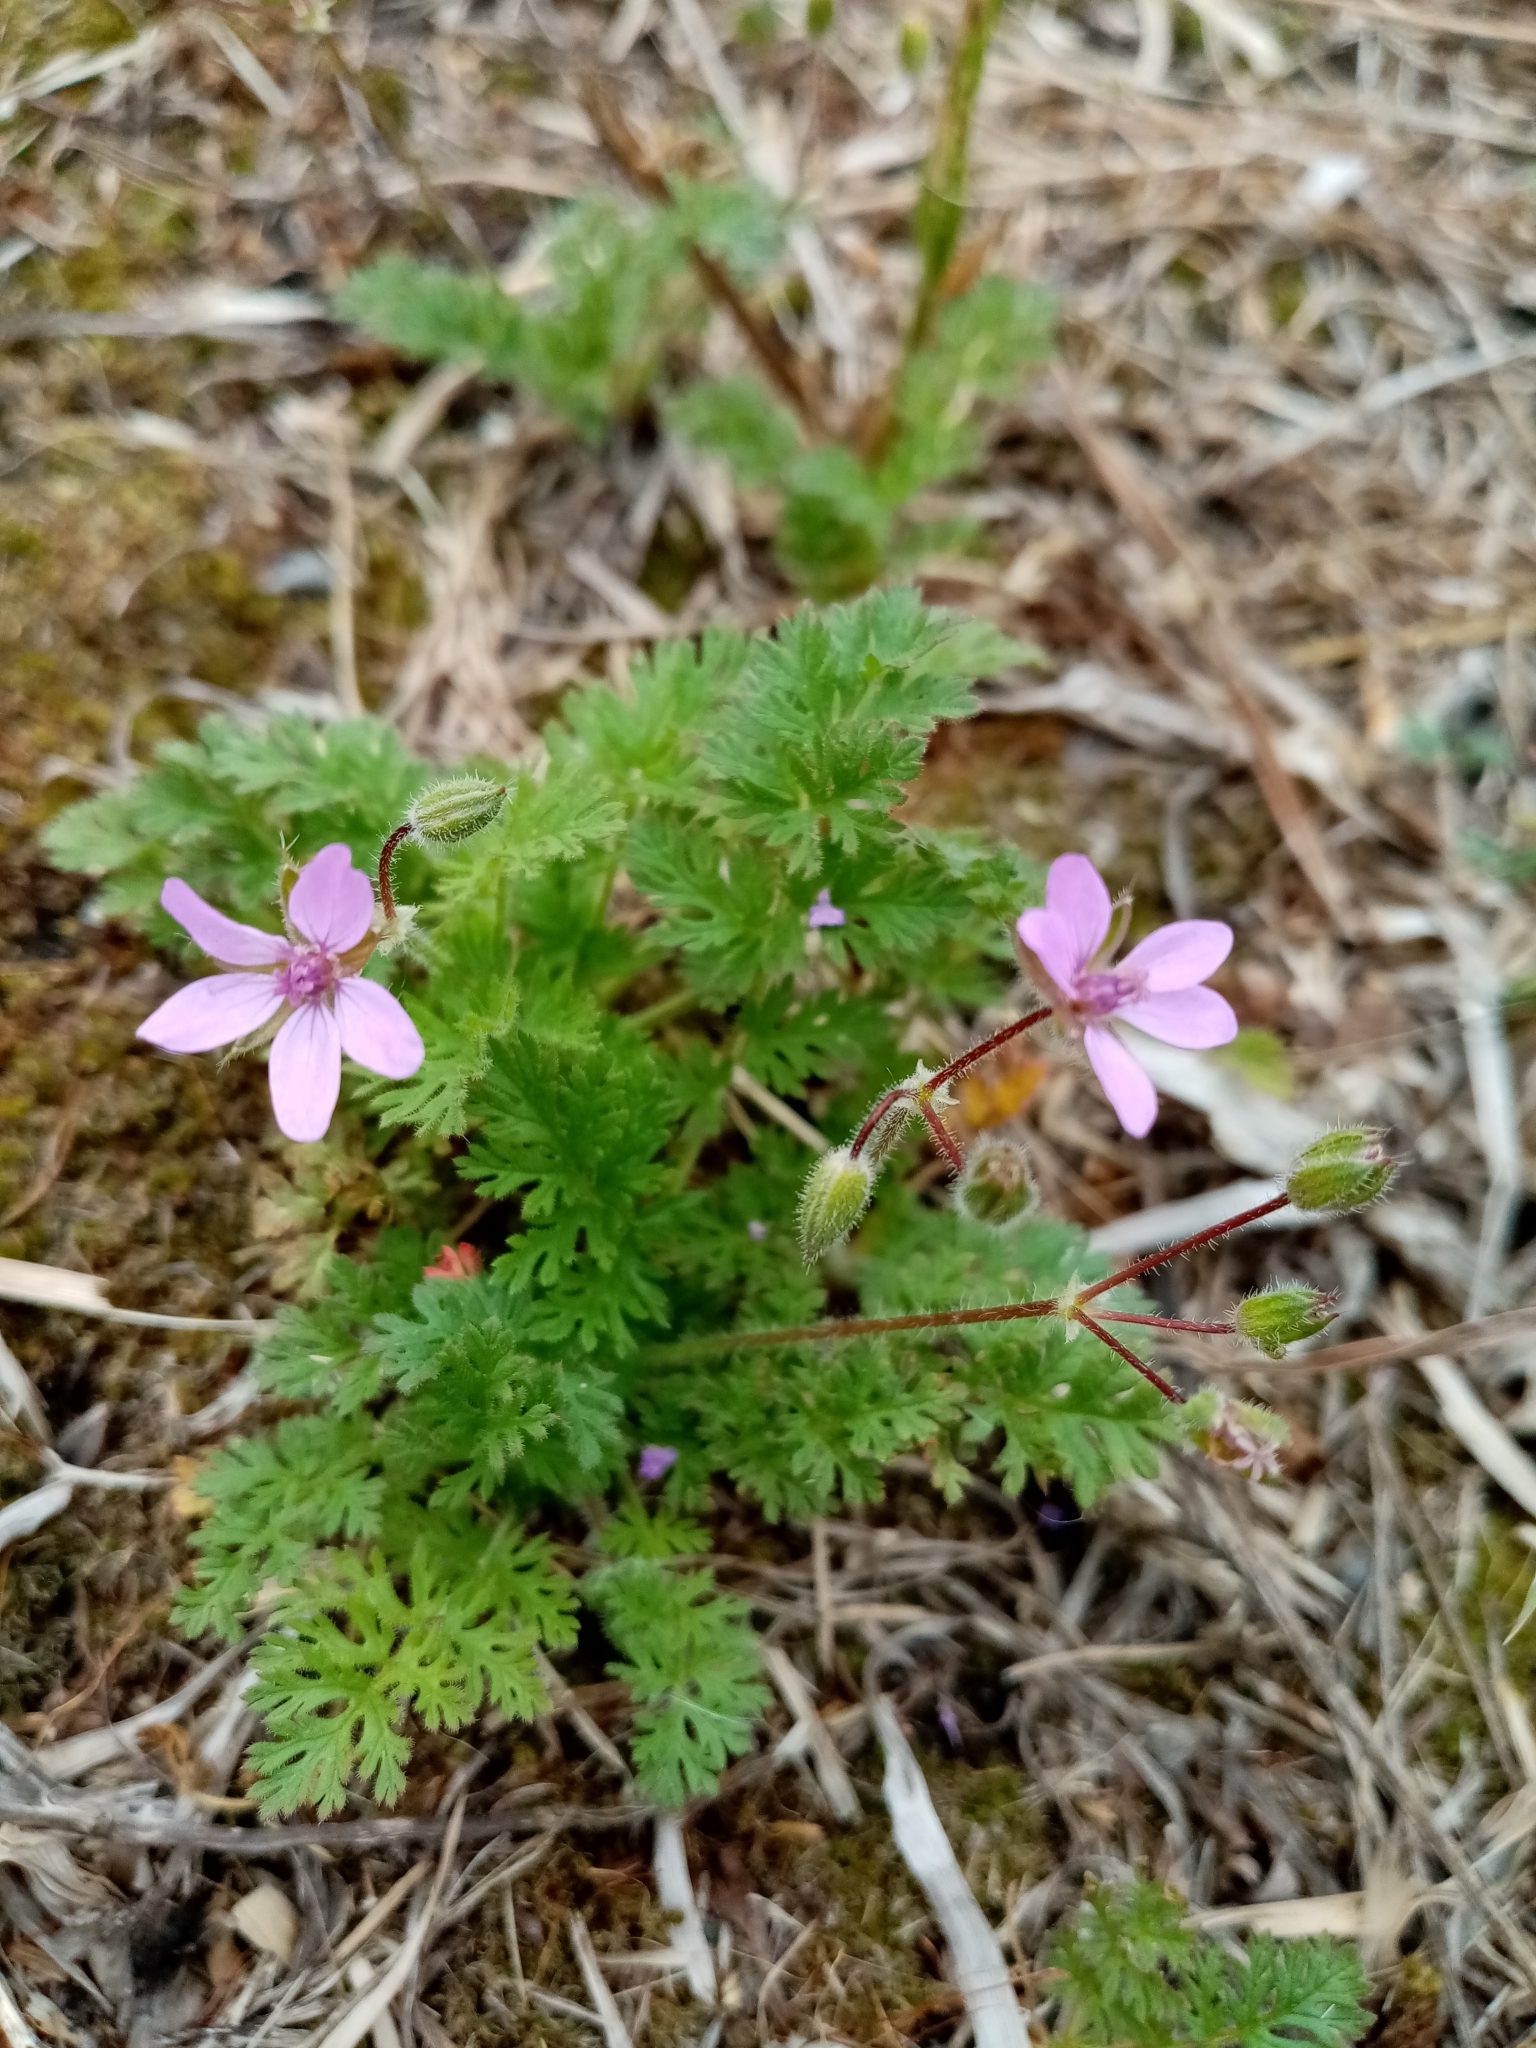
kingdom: Plantae
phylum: Tracheophyta
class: Magnoliopsida
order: Geraniales
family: Geraniaceae
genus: Erodium
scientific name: Erodium cicutarium
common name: Common stork's-bill
